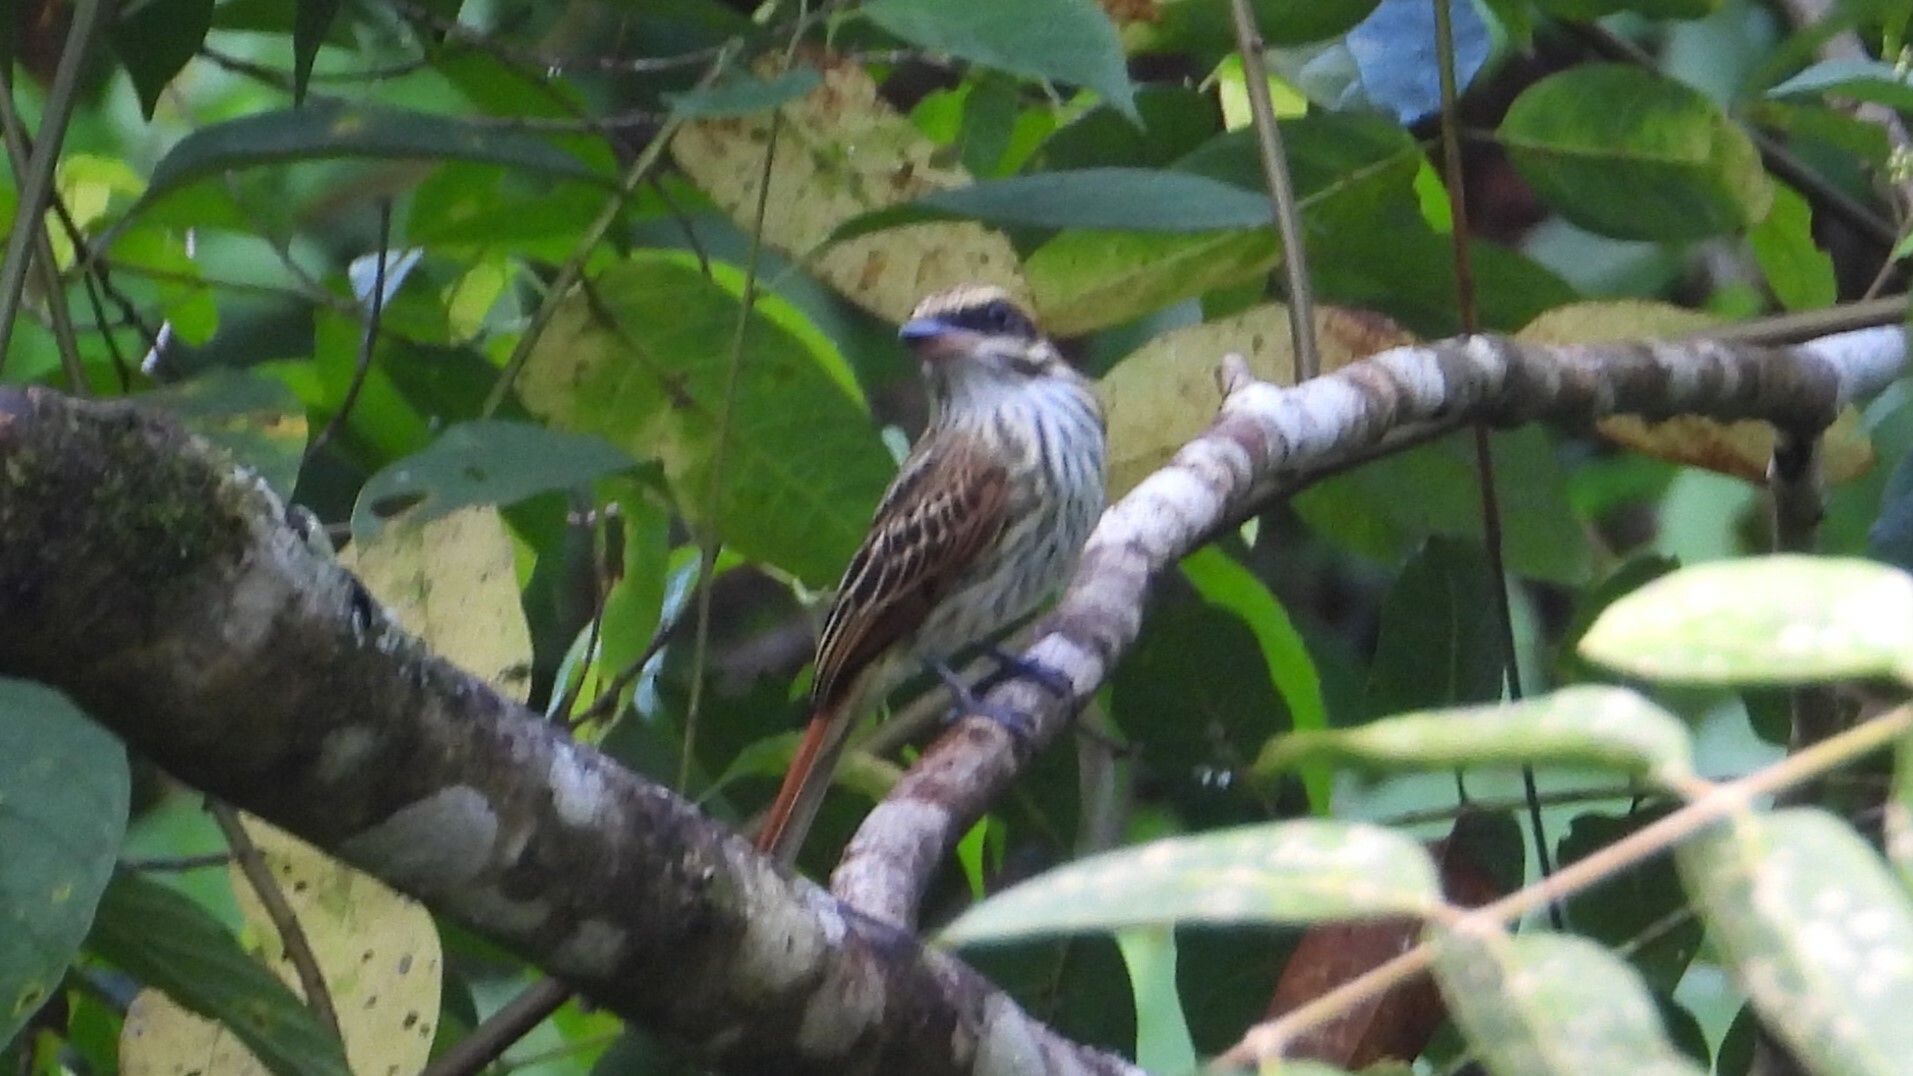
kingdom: Animalia
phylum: Chordata
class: Aves
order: Passeriformes
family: Tyrannidae
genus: Myiodynastes
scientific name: Myiodynastes maculatus
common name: Streaked flycatcher
